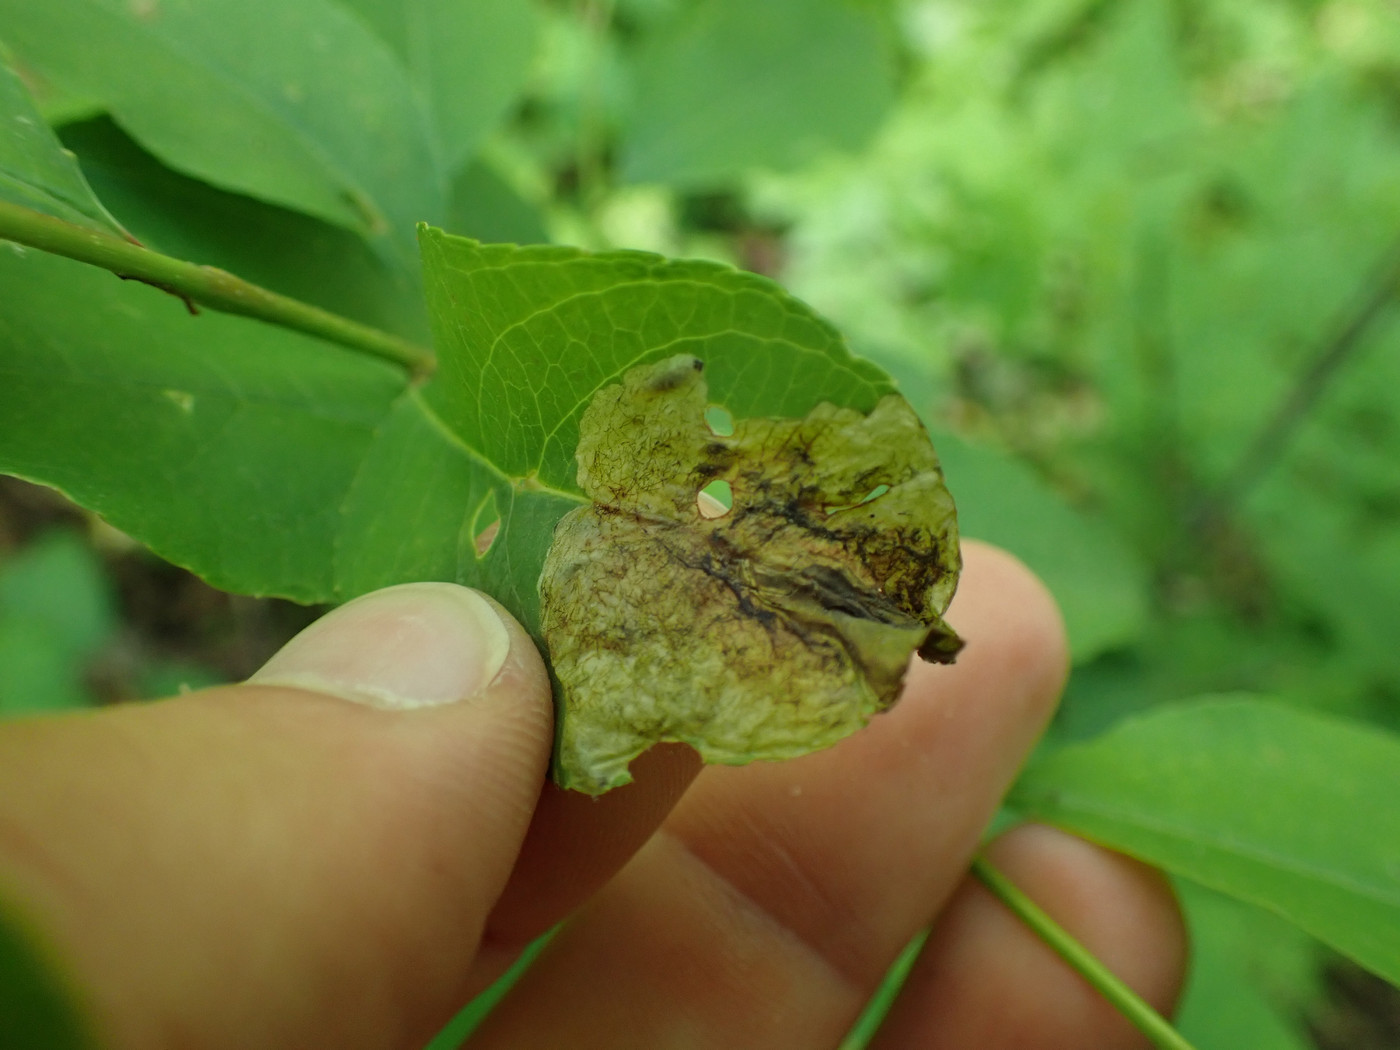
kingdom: Animalia
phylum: Arthropoda
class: Insecta
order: Coleoptera
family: Curculionidae
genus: Orchestes
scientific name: Orchestes pallicornis
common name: Apple-flea weevil
